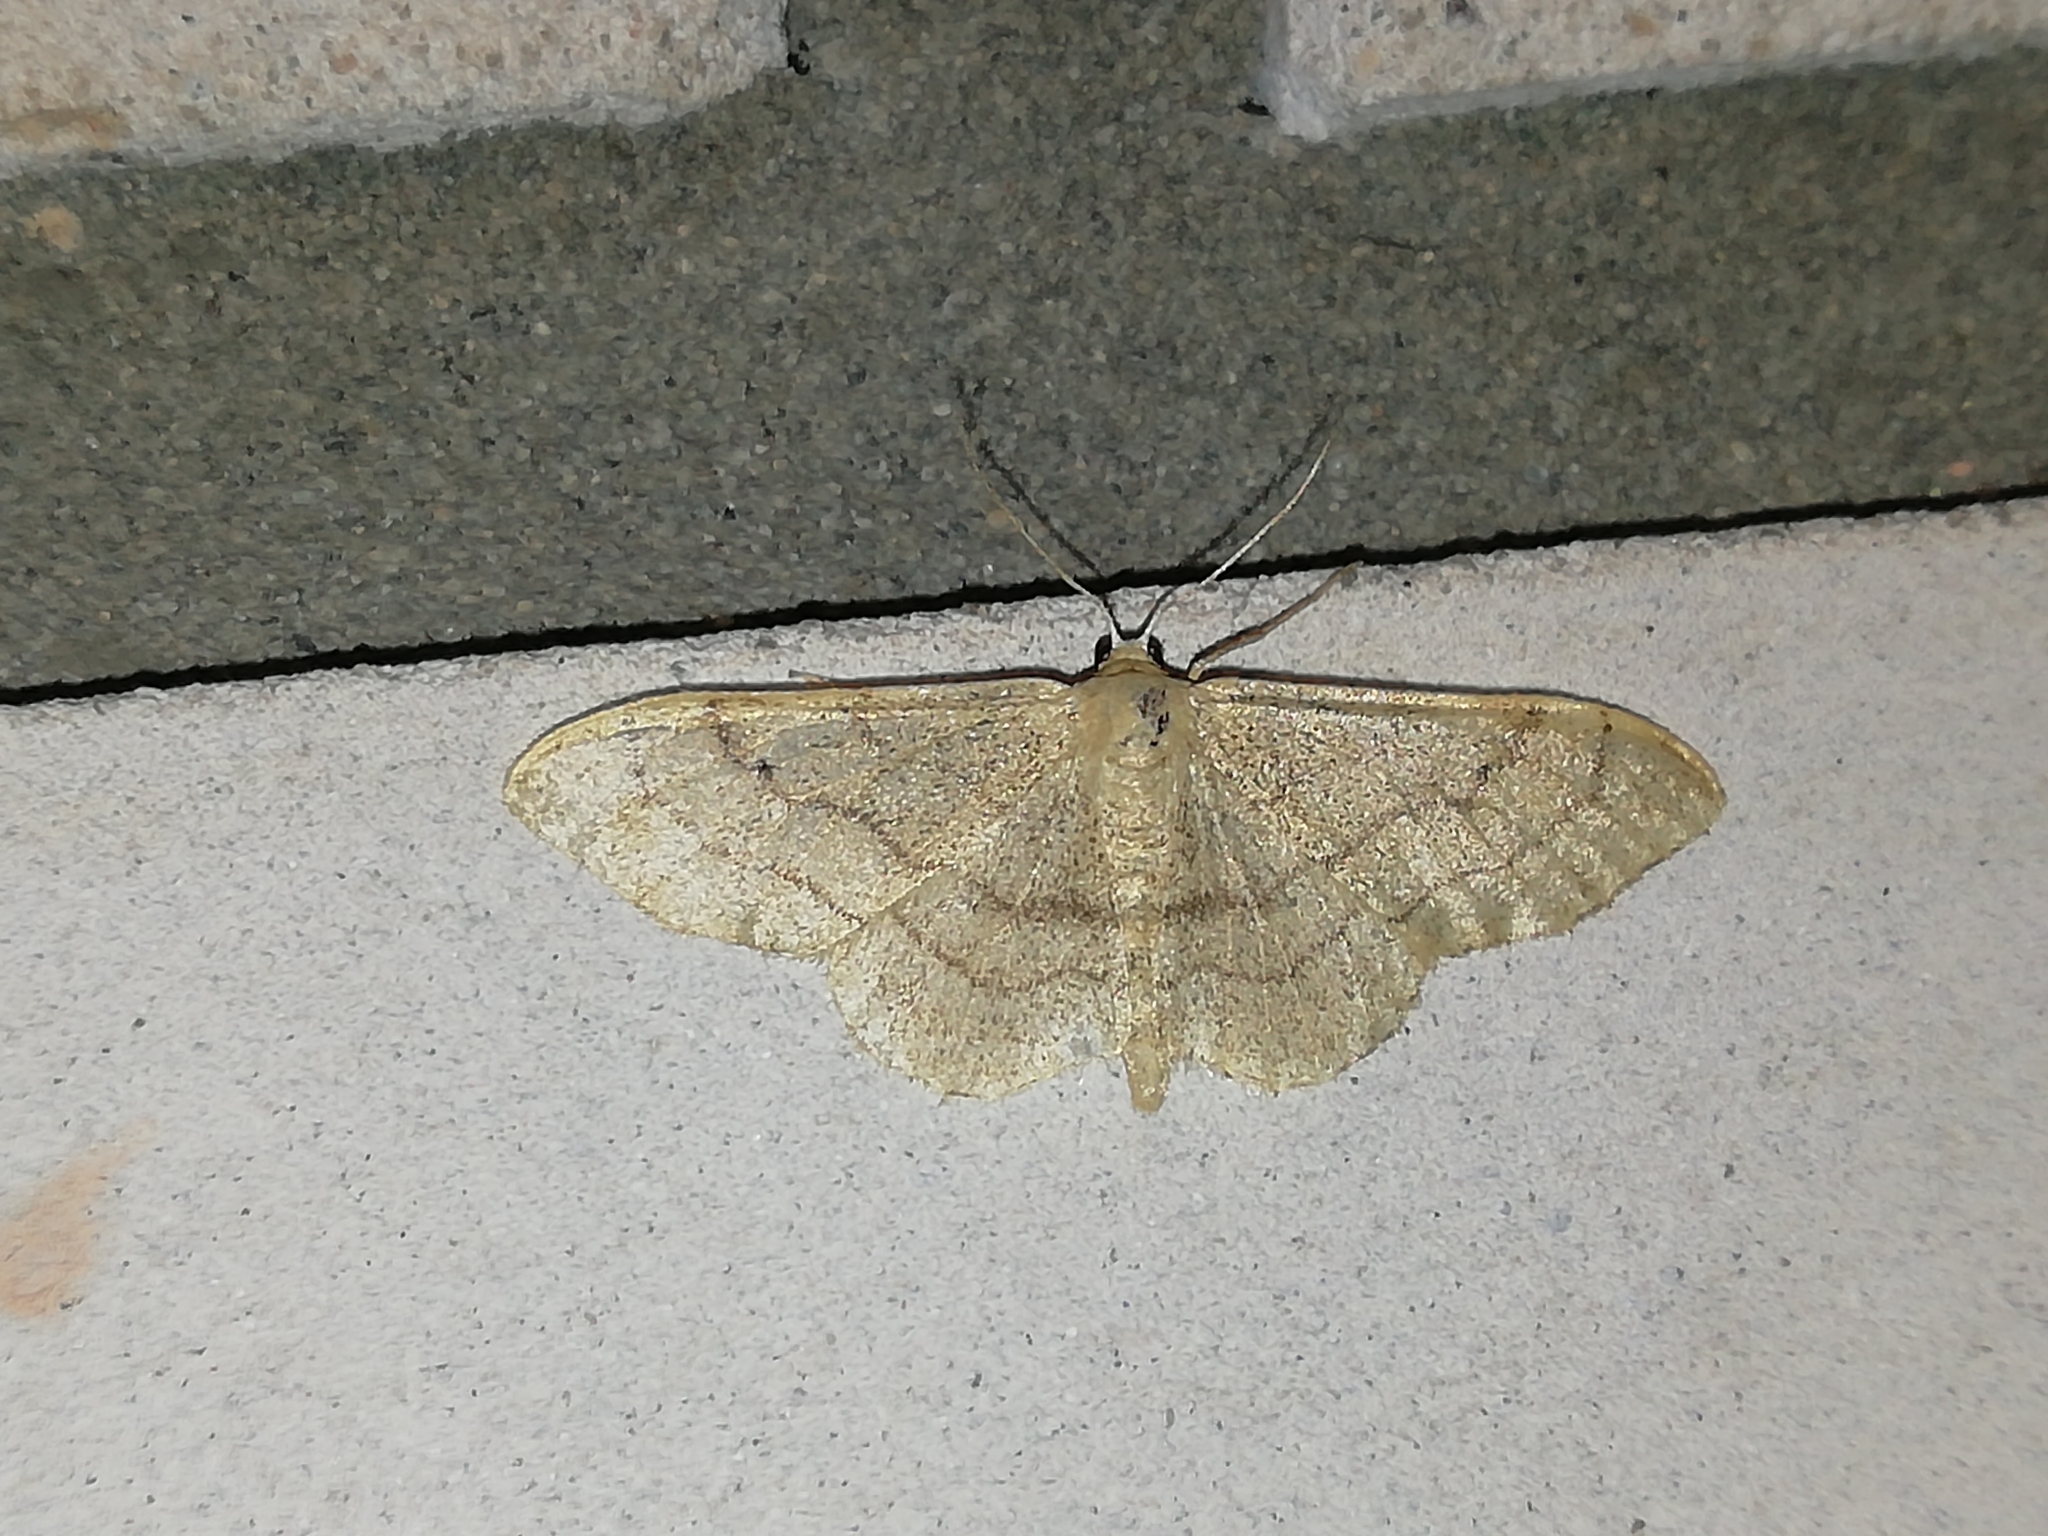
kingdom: Animalia
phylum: Arthropoda
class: Insecta
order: Lepidoptera
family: Geometridae
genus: Idaea
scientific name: Idaea aversata
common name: Riband wave
